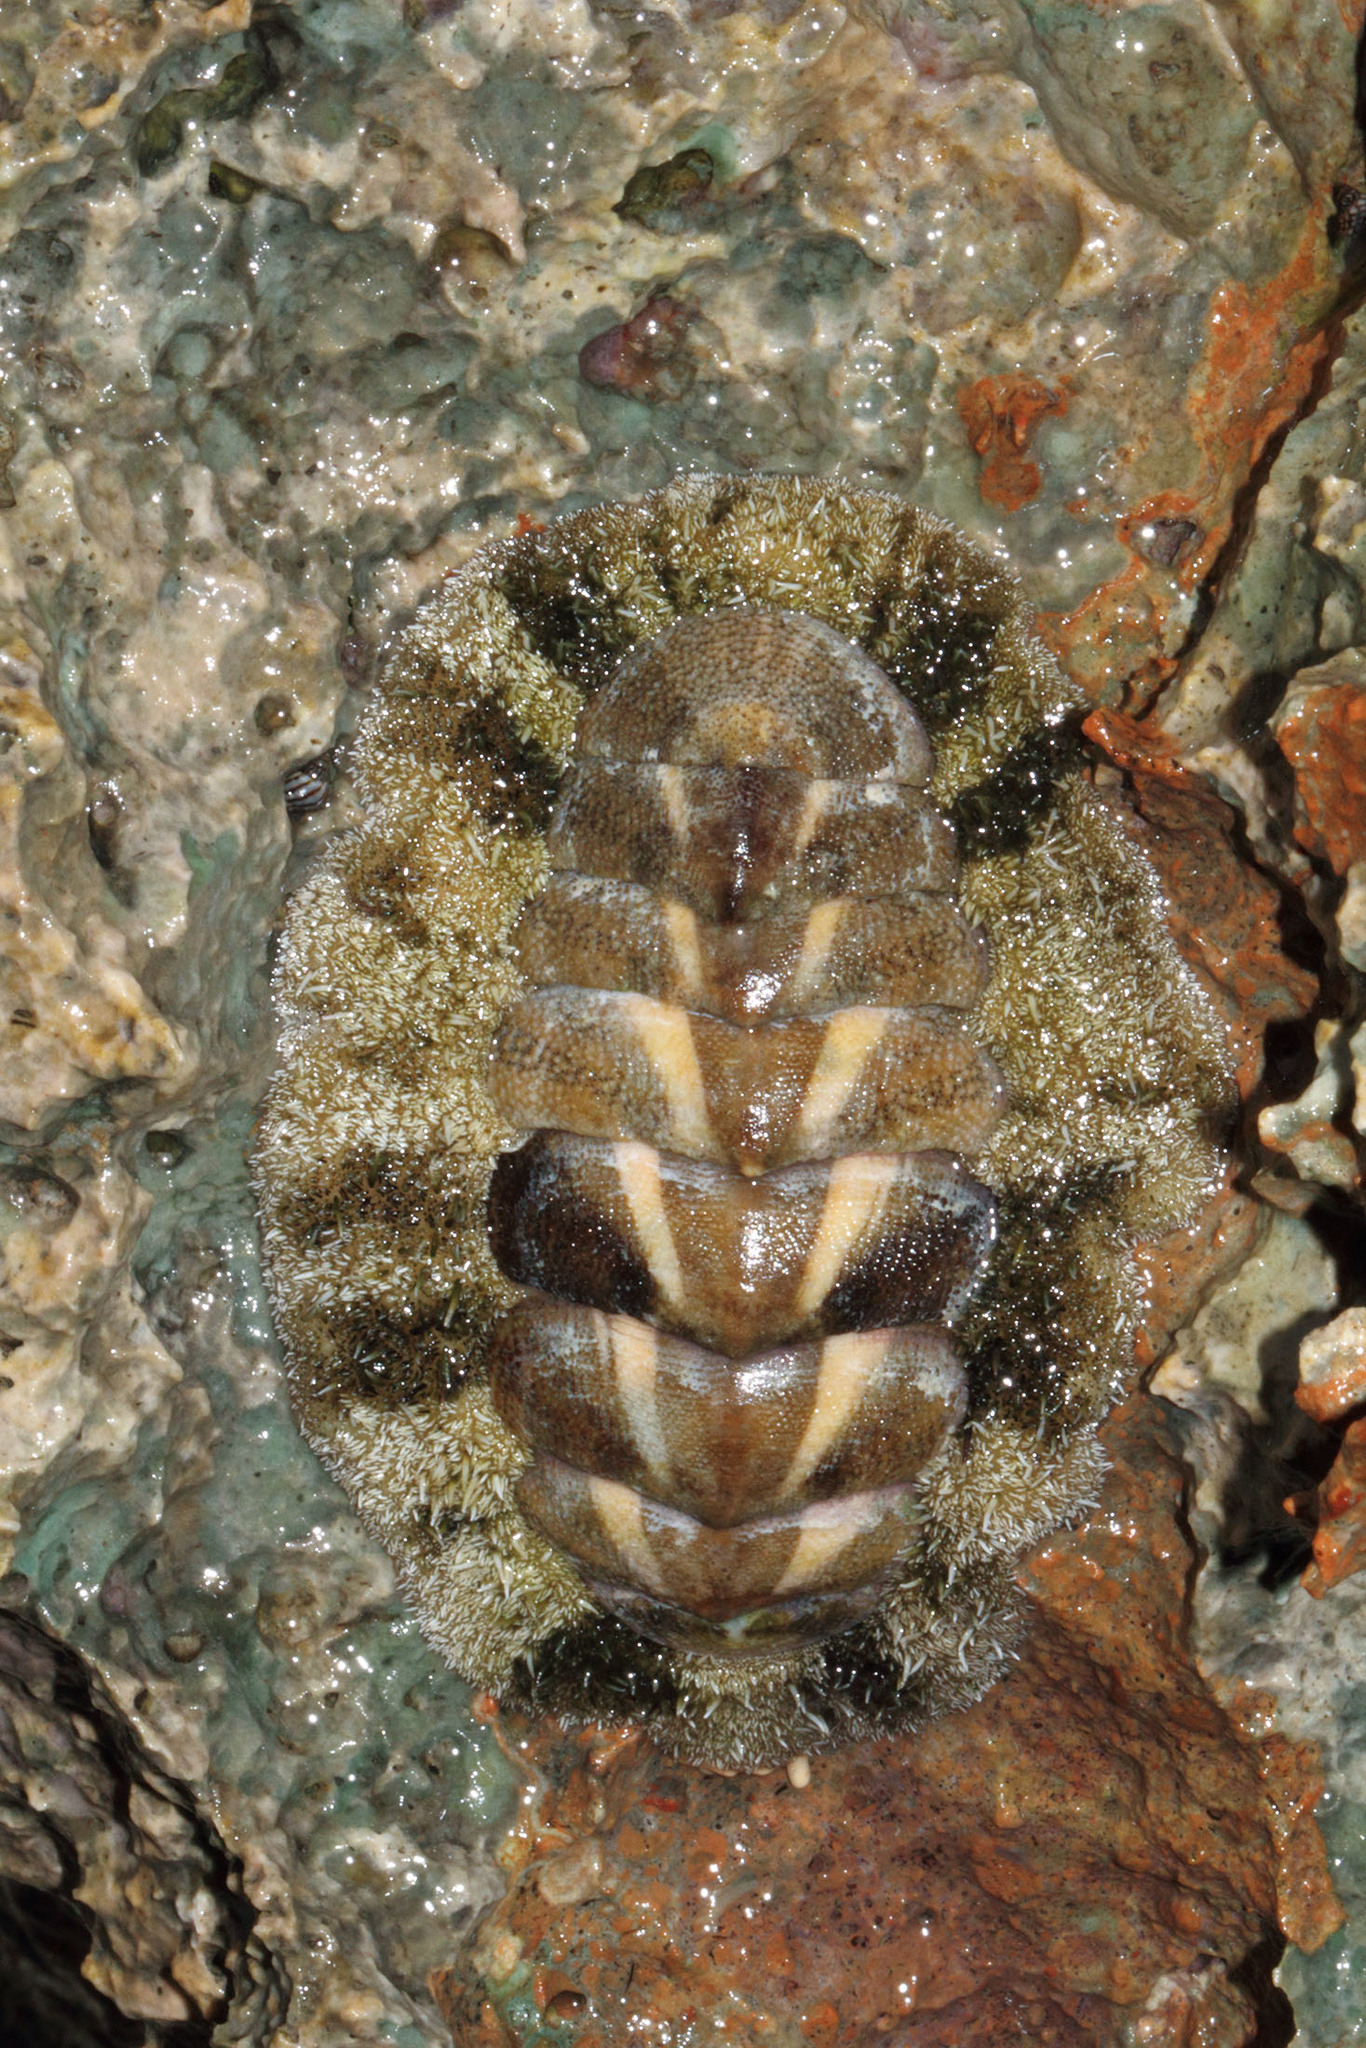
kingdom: Animalia
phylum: Mollusca
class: Polyplacophora
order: Chitonida
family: Chitonidae
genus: Acanthopleura
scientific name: Acanthopleura granulata
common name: West indian fuzzy chiton
